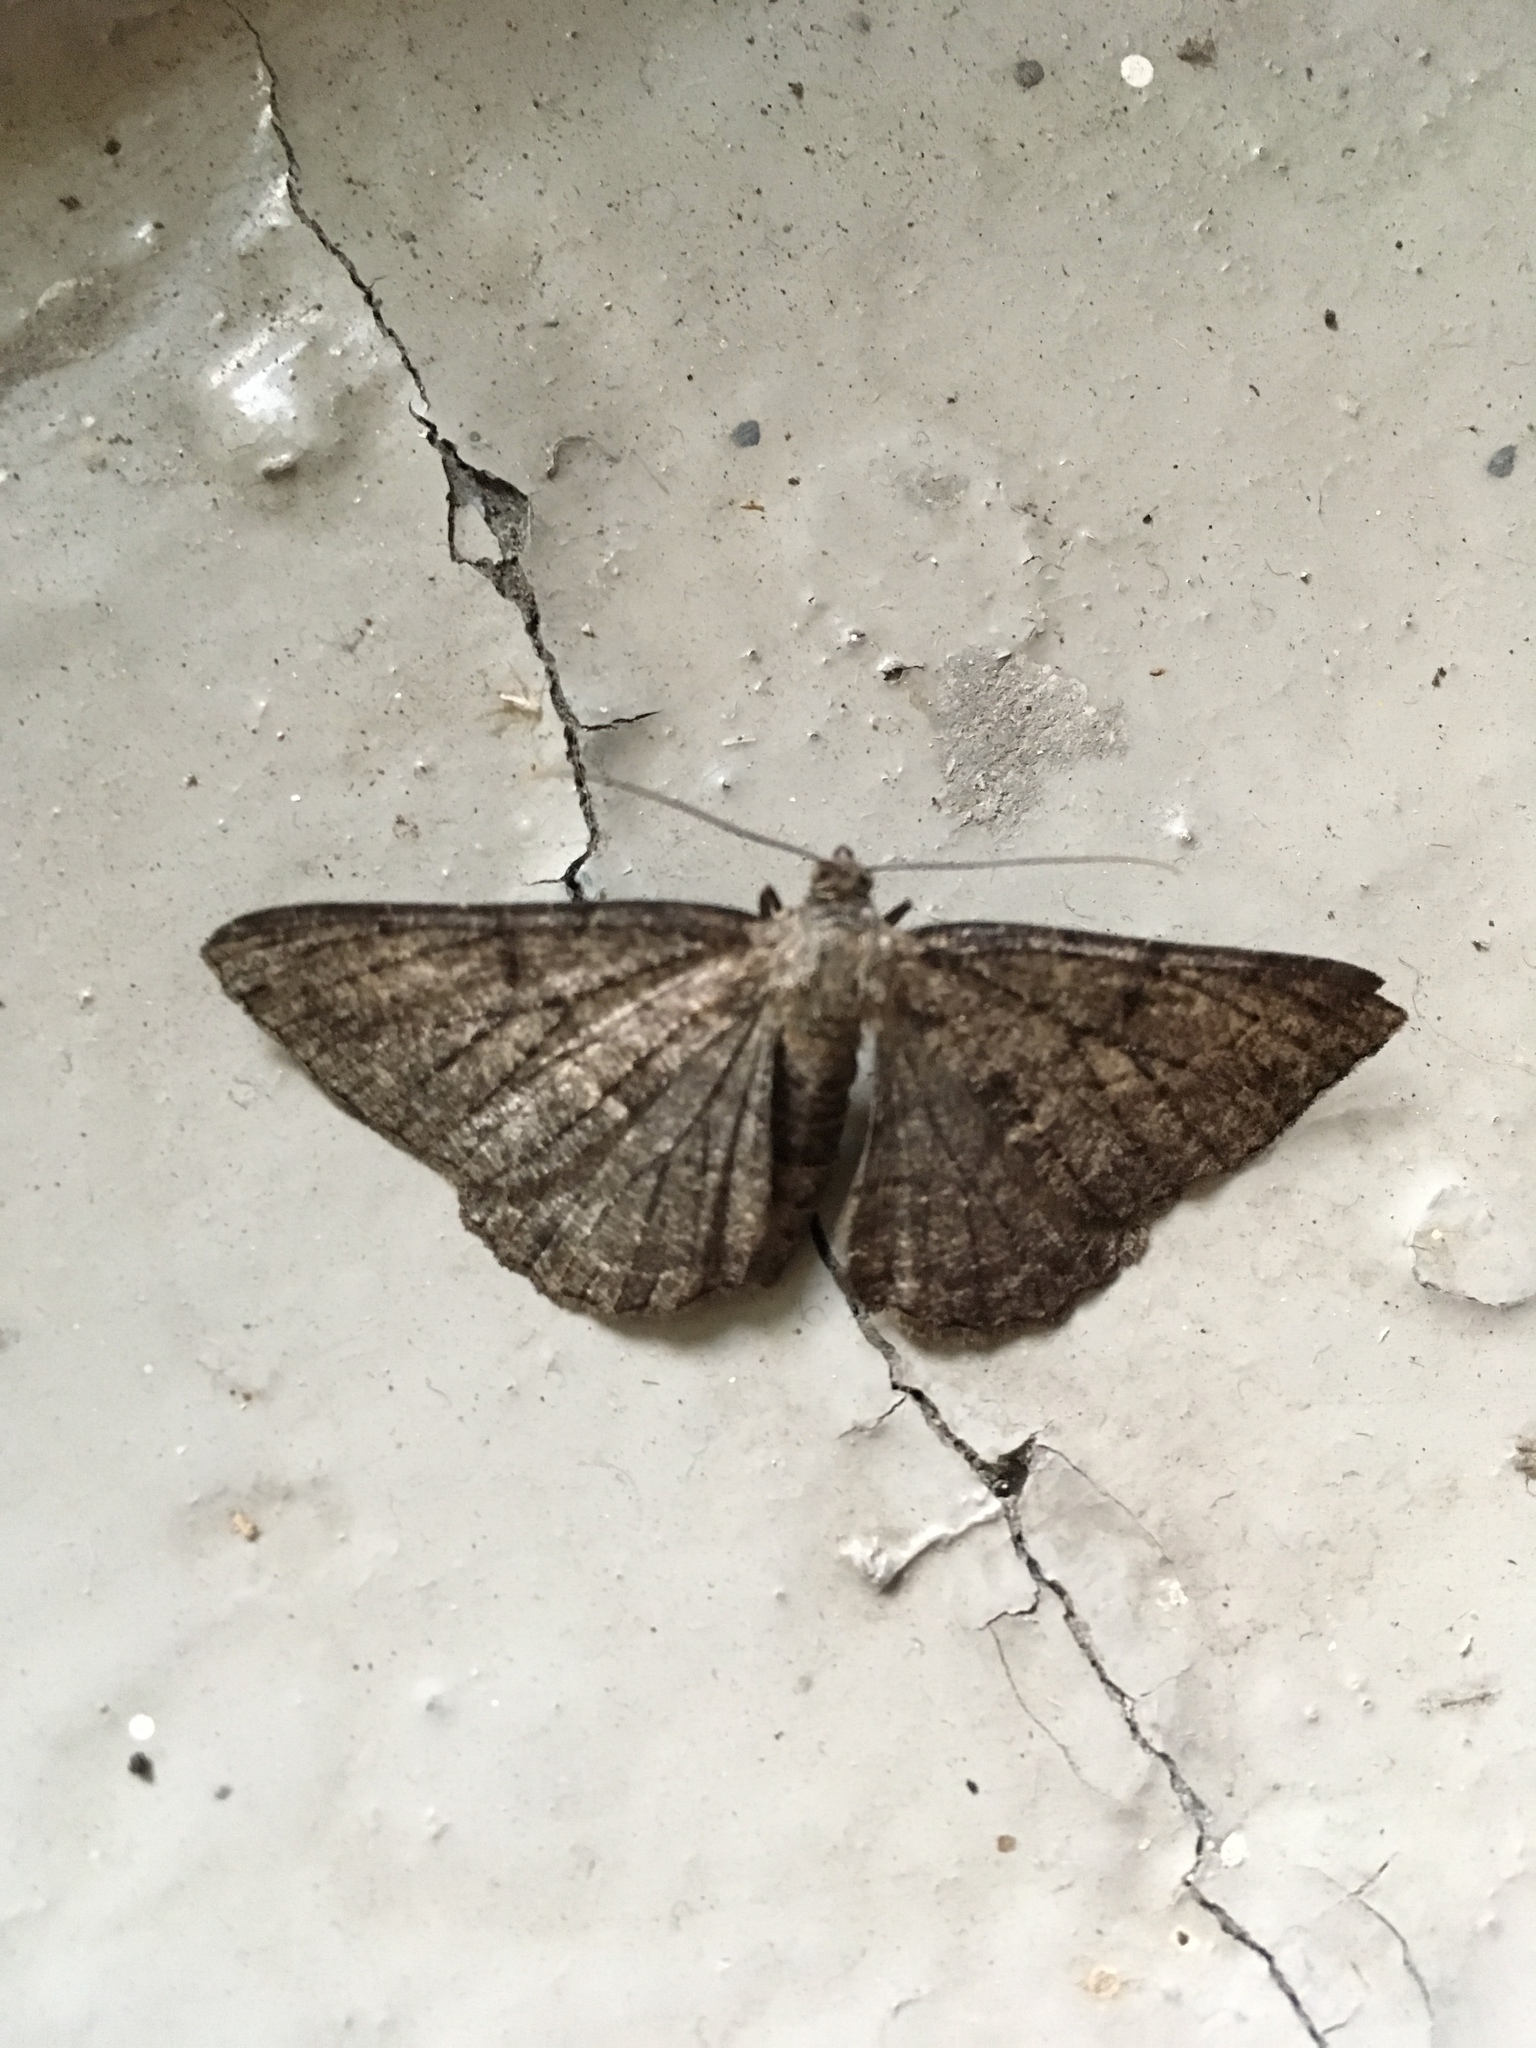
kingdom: Animalia
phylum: Arthropoda
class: Insecta
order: Lepidoptera
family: Geometridae
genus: Peribatodes
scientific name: Peribatodes rhomboidaria
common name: Willow beauty
